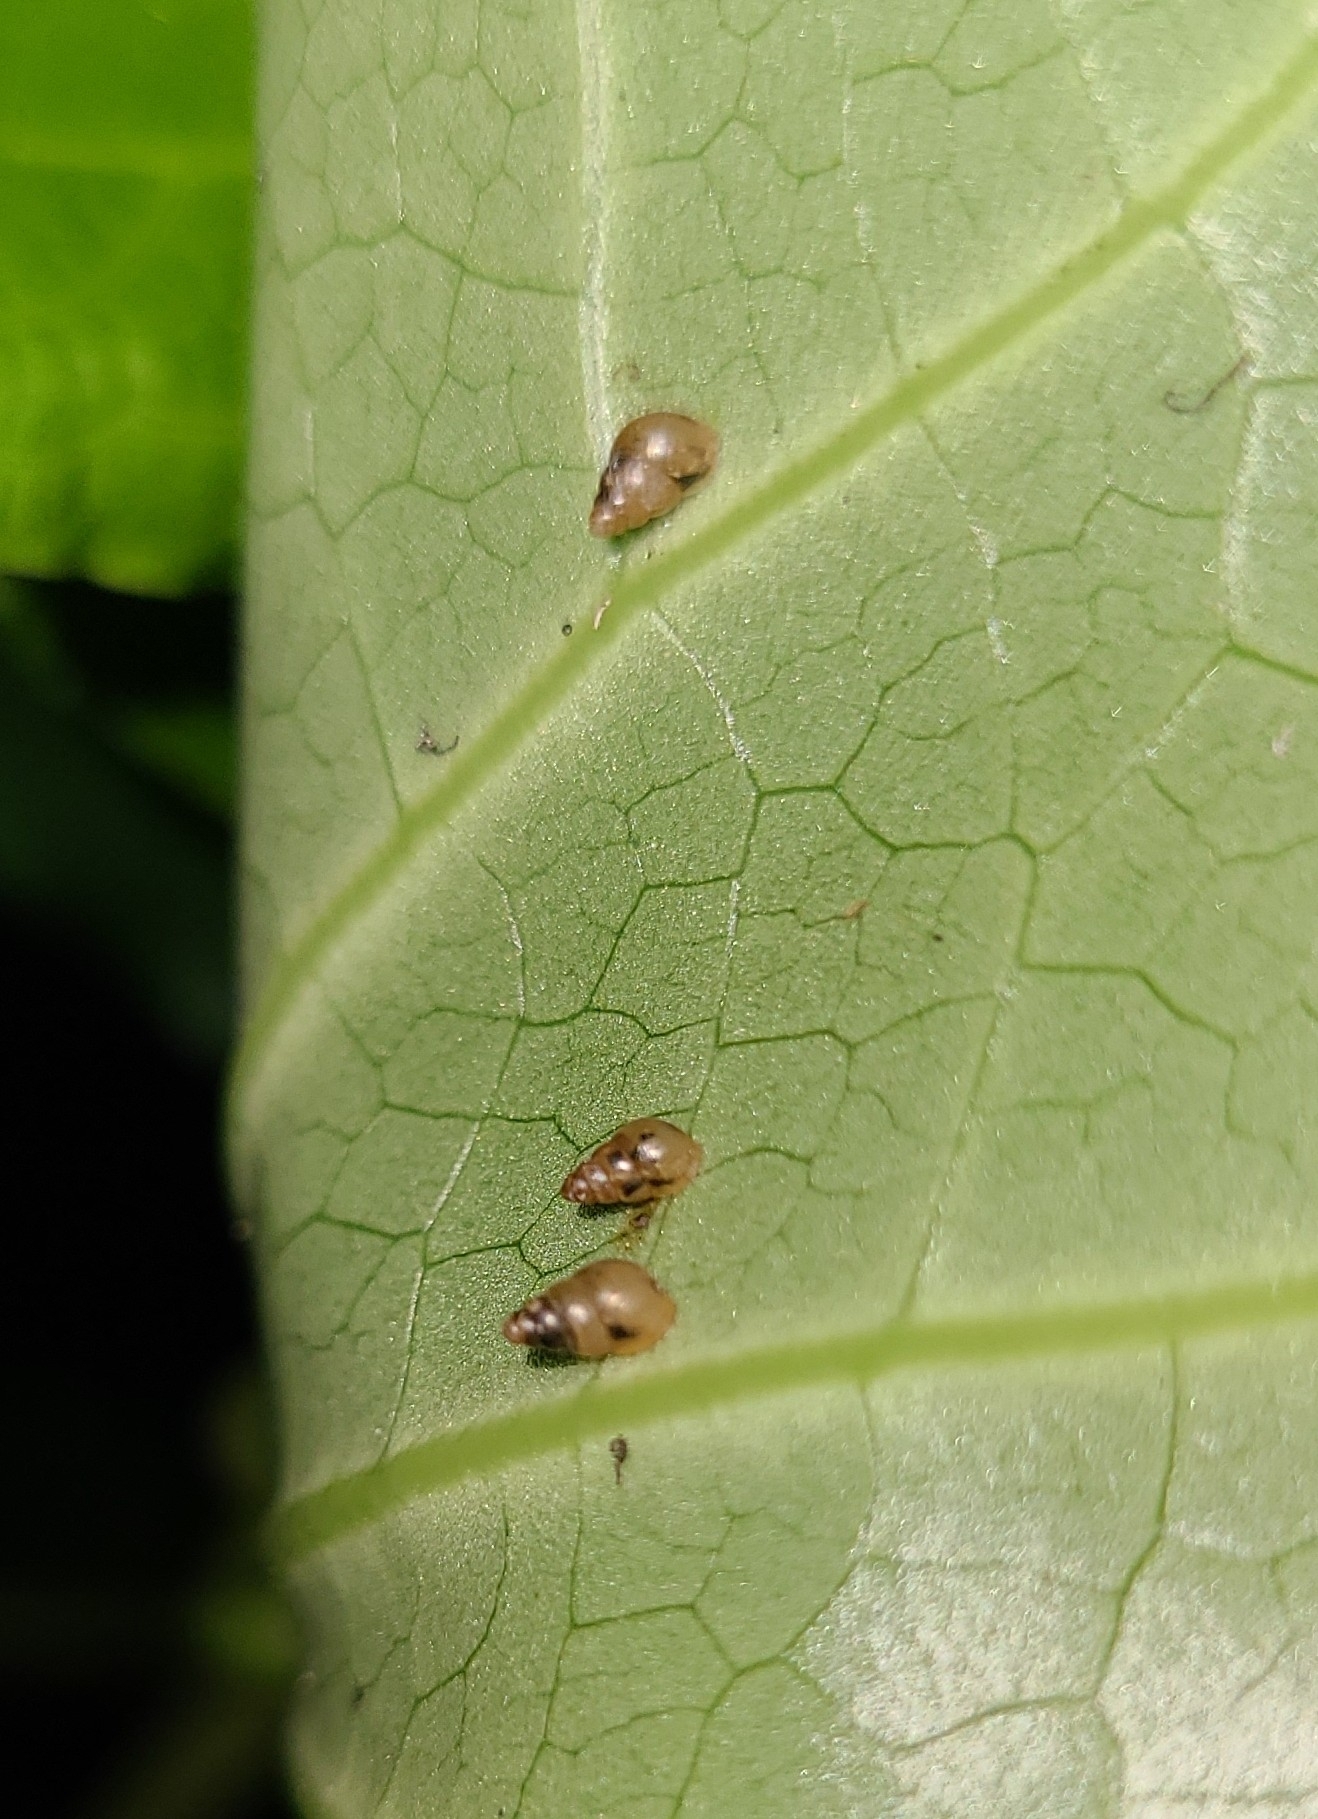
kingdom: Animalia
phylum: Mollusca
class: Gastropoda
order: Stylommatophora
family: Achatinellidae
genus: Tornatellides
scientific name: Tornatellides subperforatus
